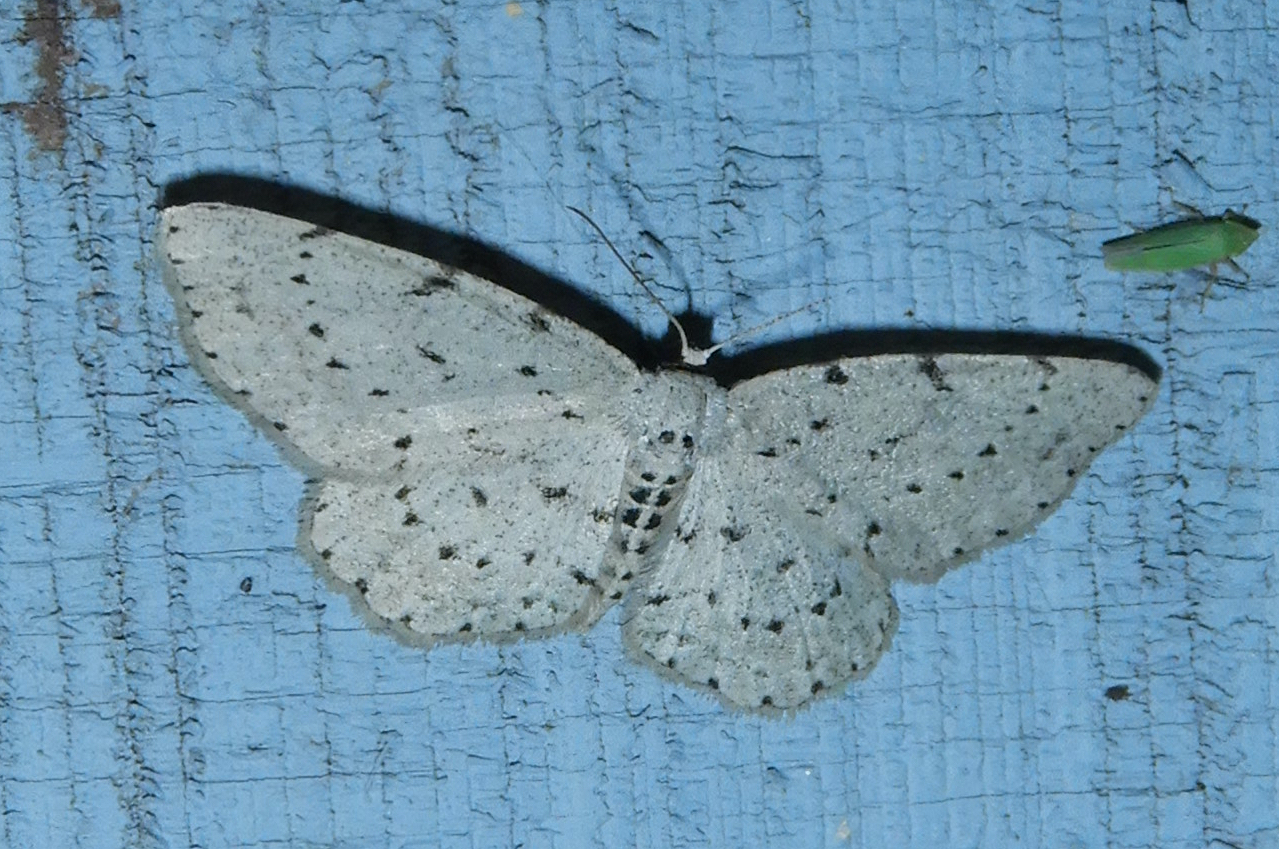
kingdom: Animalia
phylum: Arthropoda
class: Insecta
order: Lepidoptera
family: Geometridae
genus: Glena
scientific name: Glena cribrataria
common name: Dotted gray
